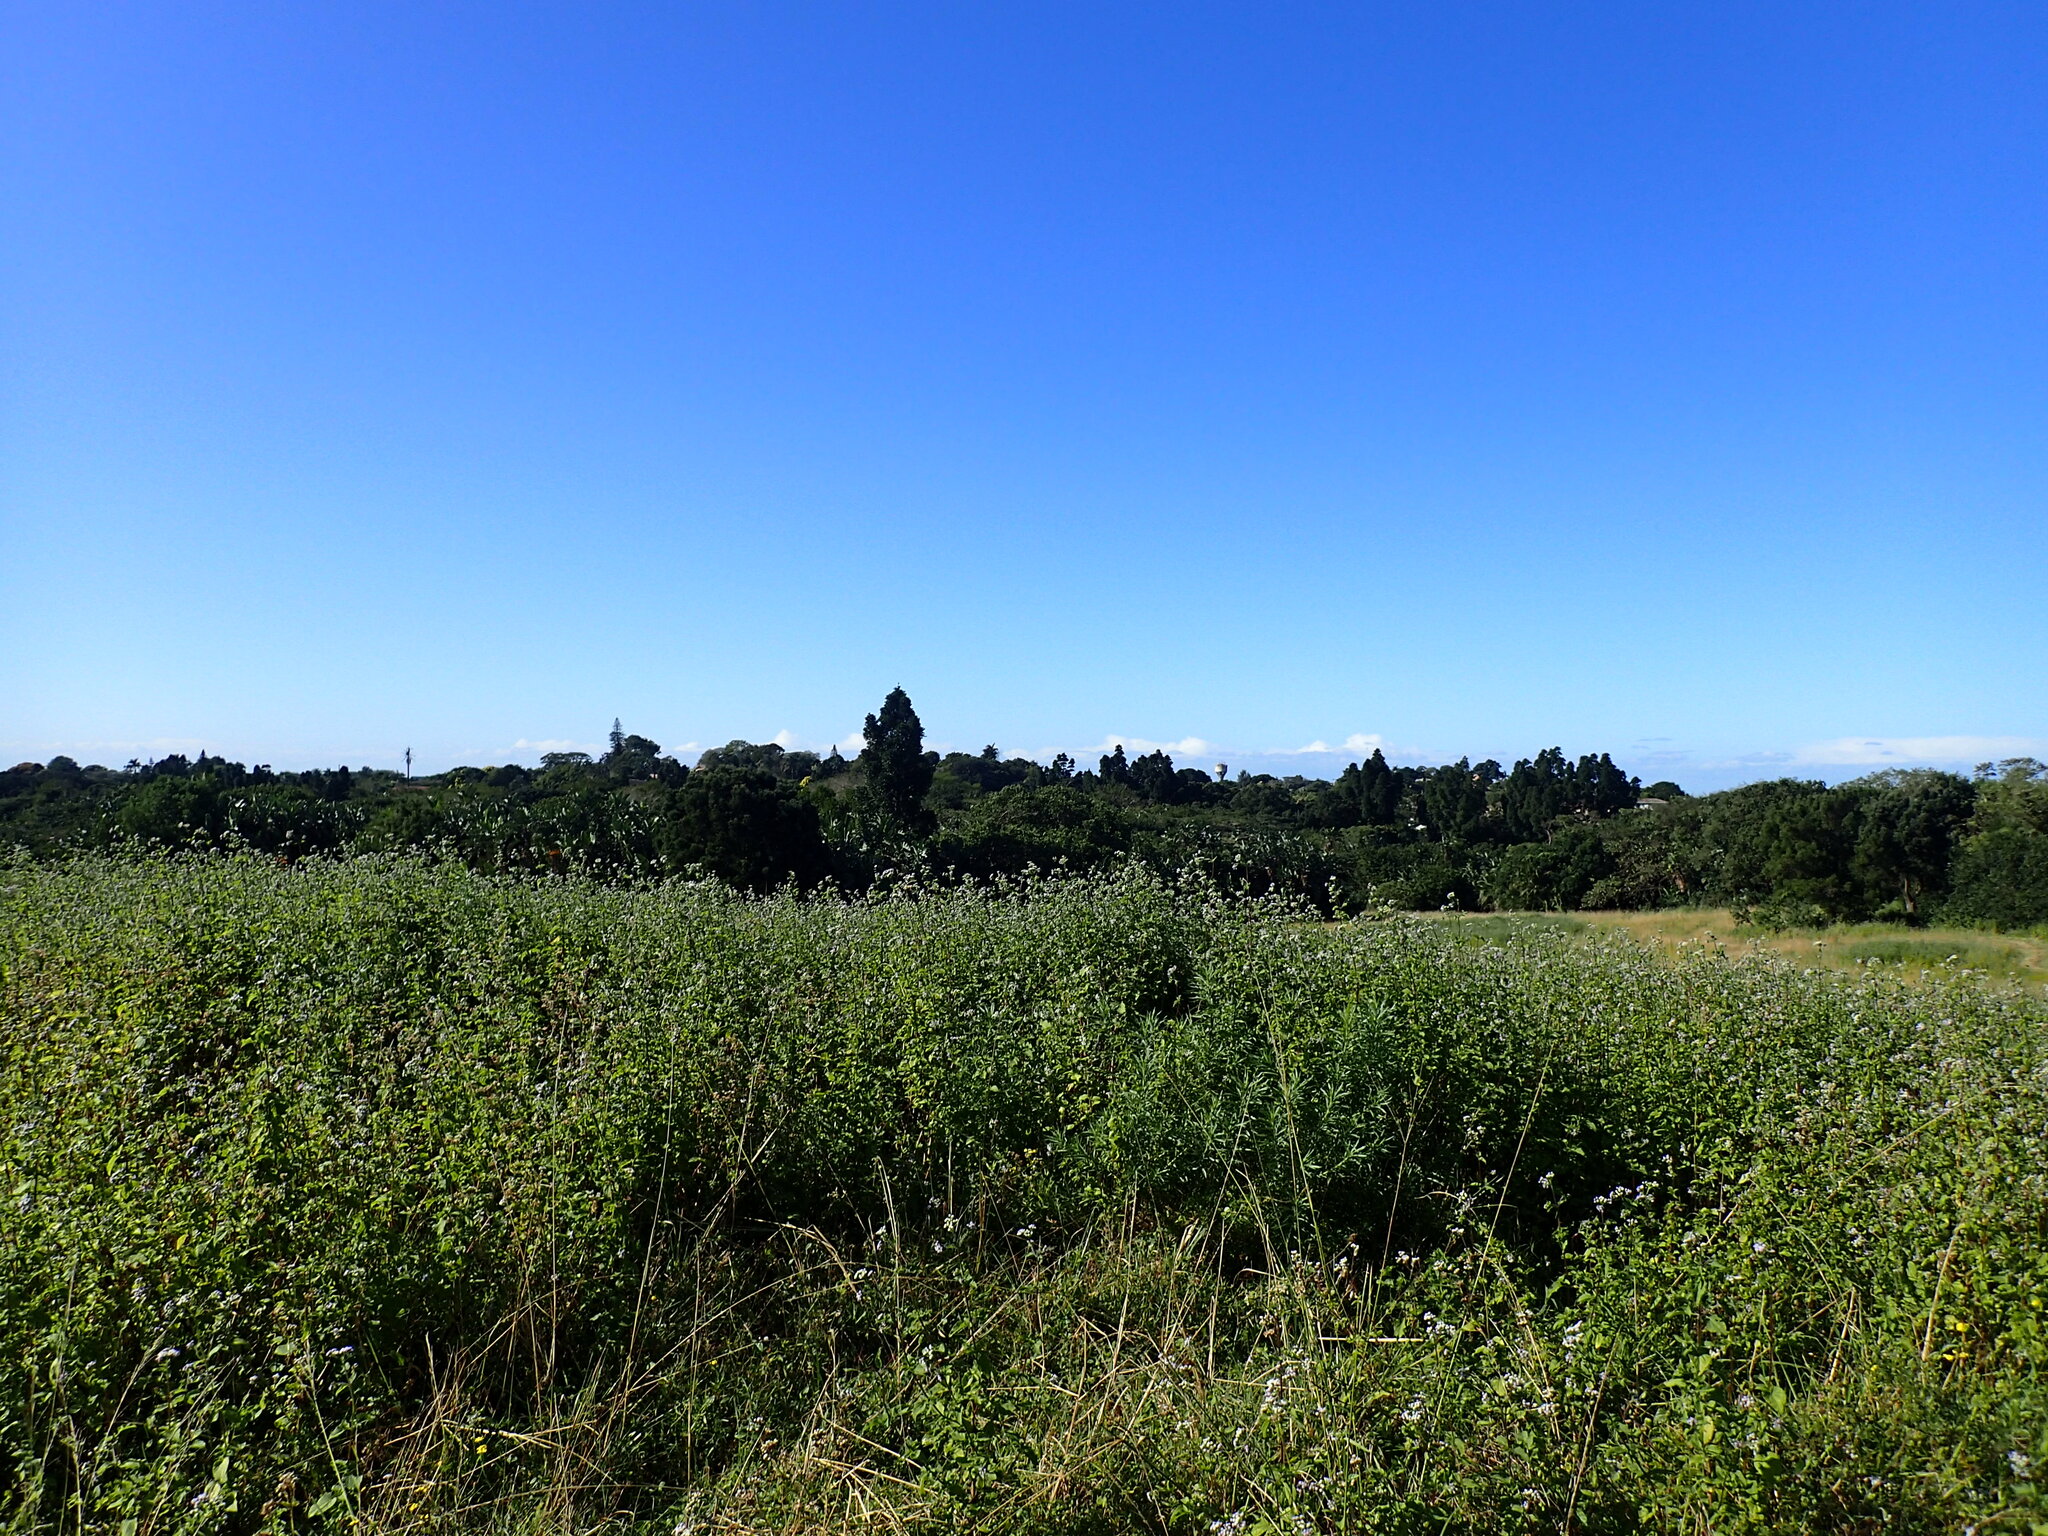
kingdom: Plantae
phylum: Tracheophyta
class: Magnoliopsida
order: Asterales
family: Asteraceae
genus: Ageratum
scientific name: Ageratum conyzoides
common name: Tropical whiteweed
